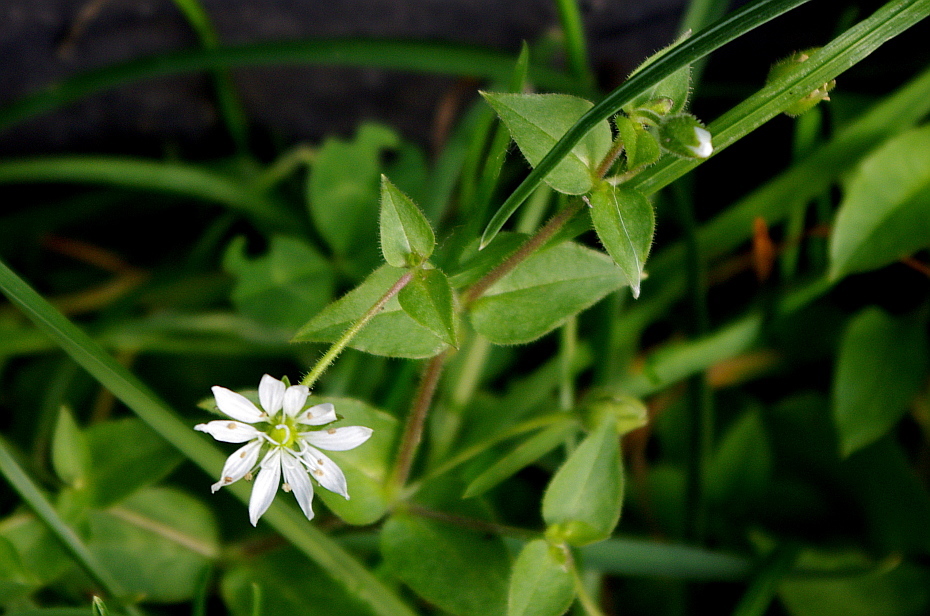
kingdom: Plantae
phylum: Tracheophyta
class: Magnoliopsida
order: Caryophyllales
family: Caryophyllaceae
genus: Stellaria
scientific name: Stellaria aquatica
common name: Water chickweed
